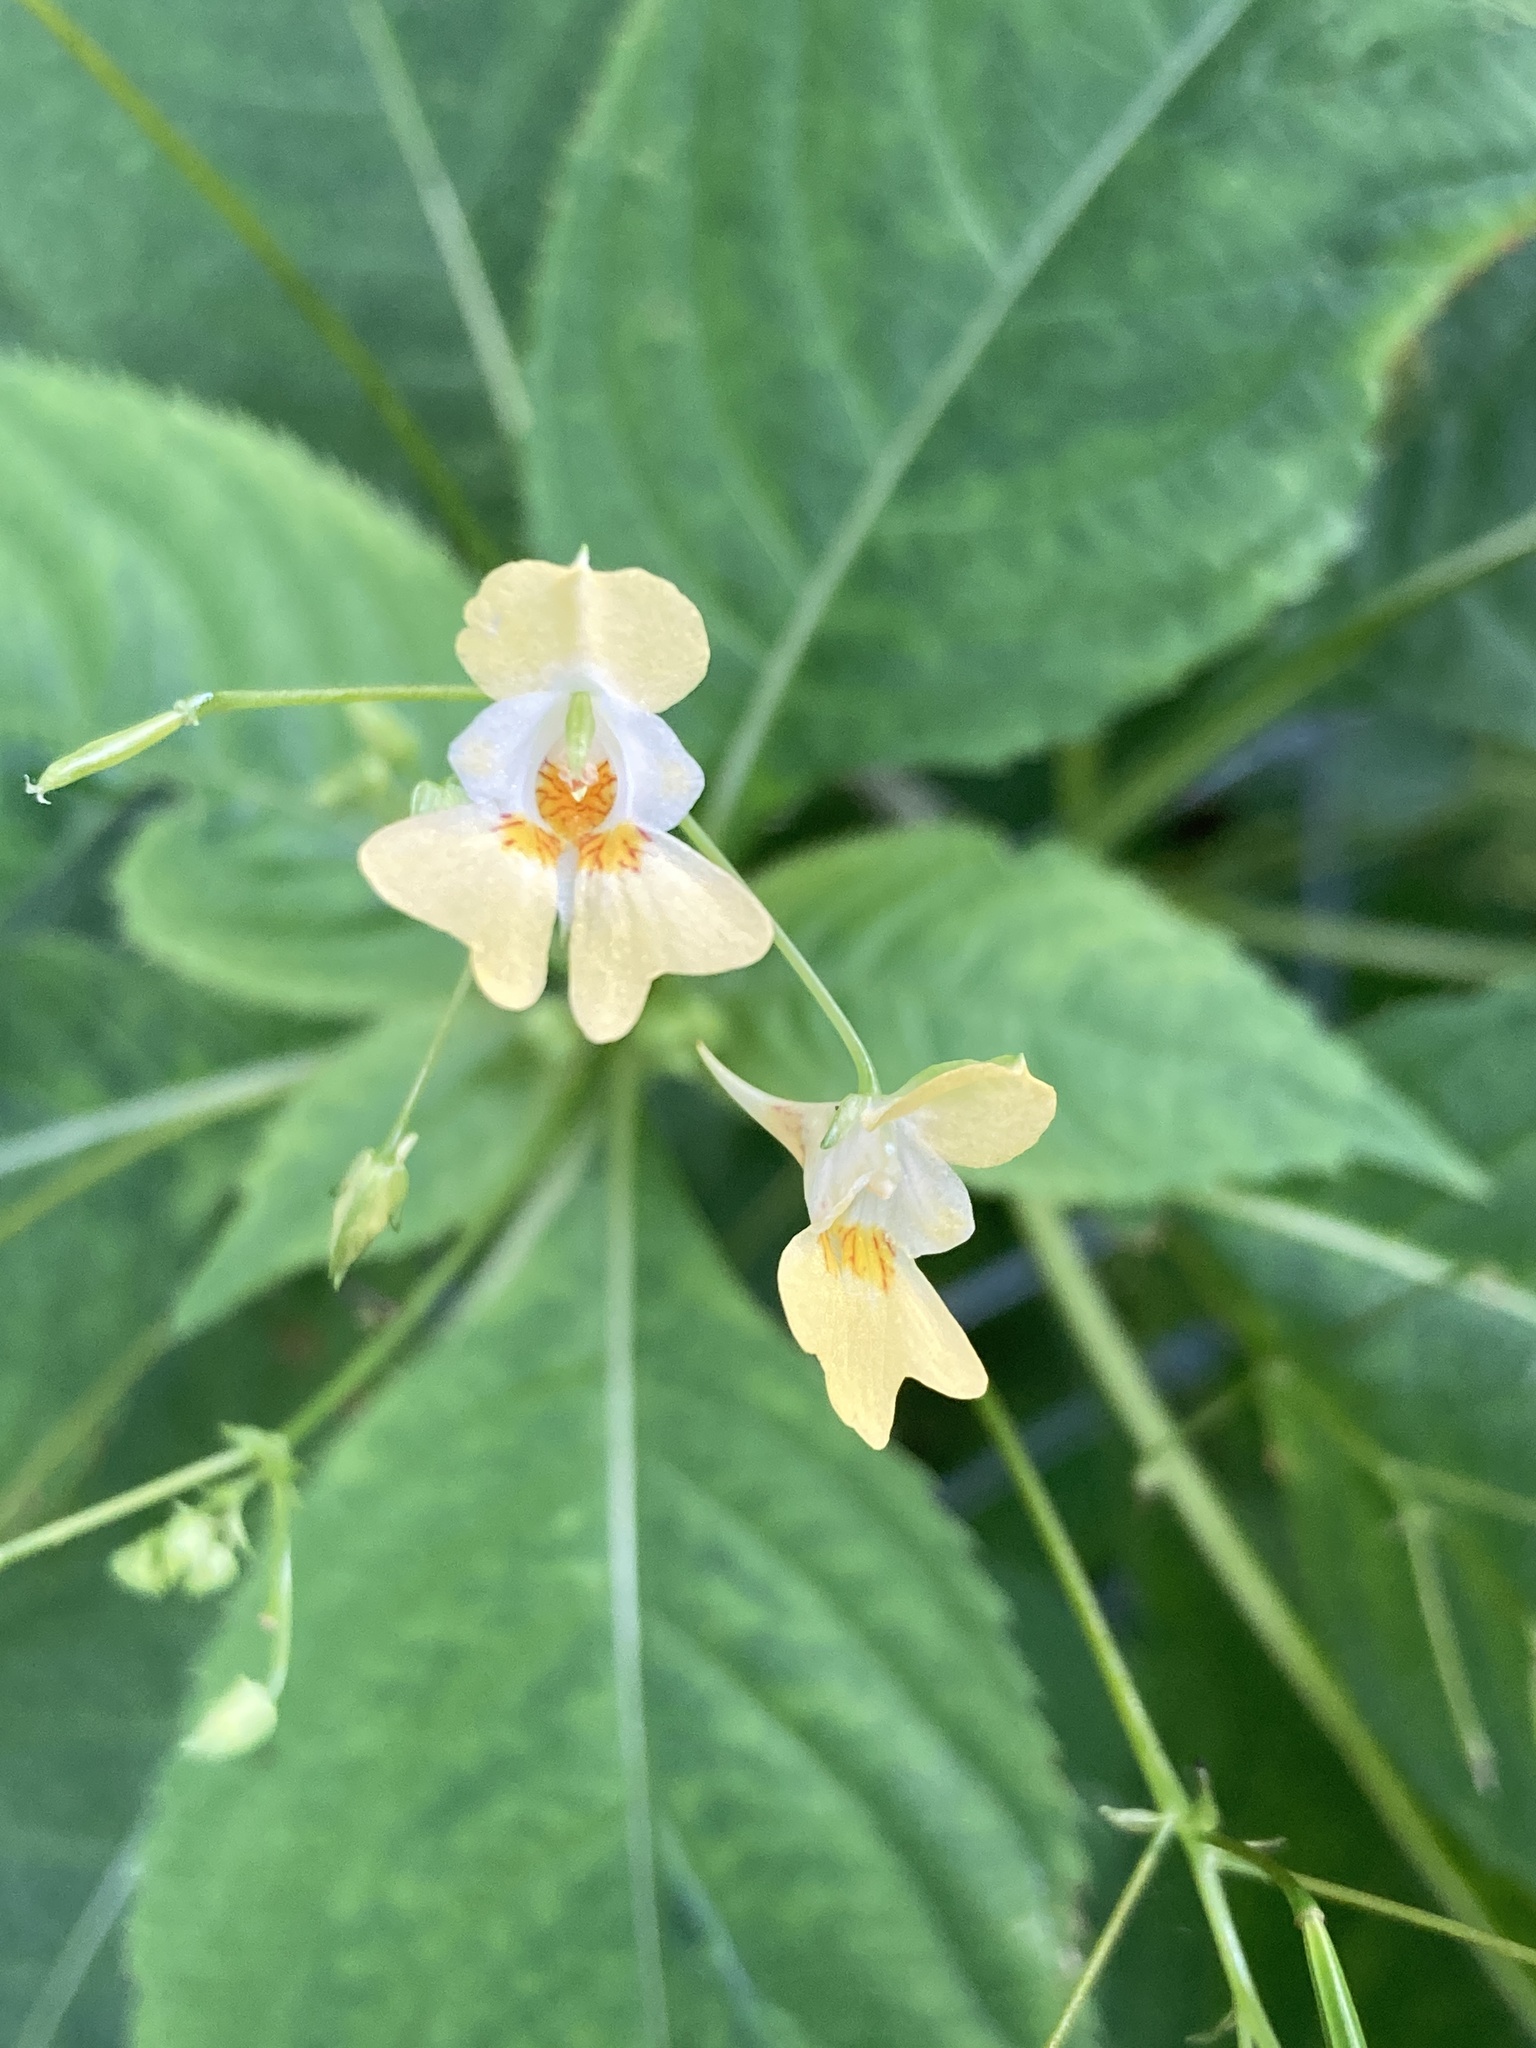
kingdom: Plantae
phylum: Tracheophyta
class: Magnoliopsida
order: Ericales
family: Balsaminaceae
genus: Impatiens
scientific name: Impatiens parviflora
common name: Small balsam
